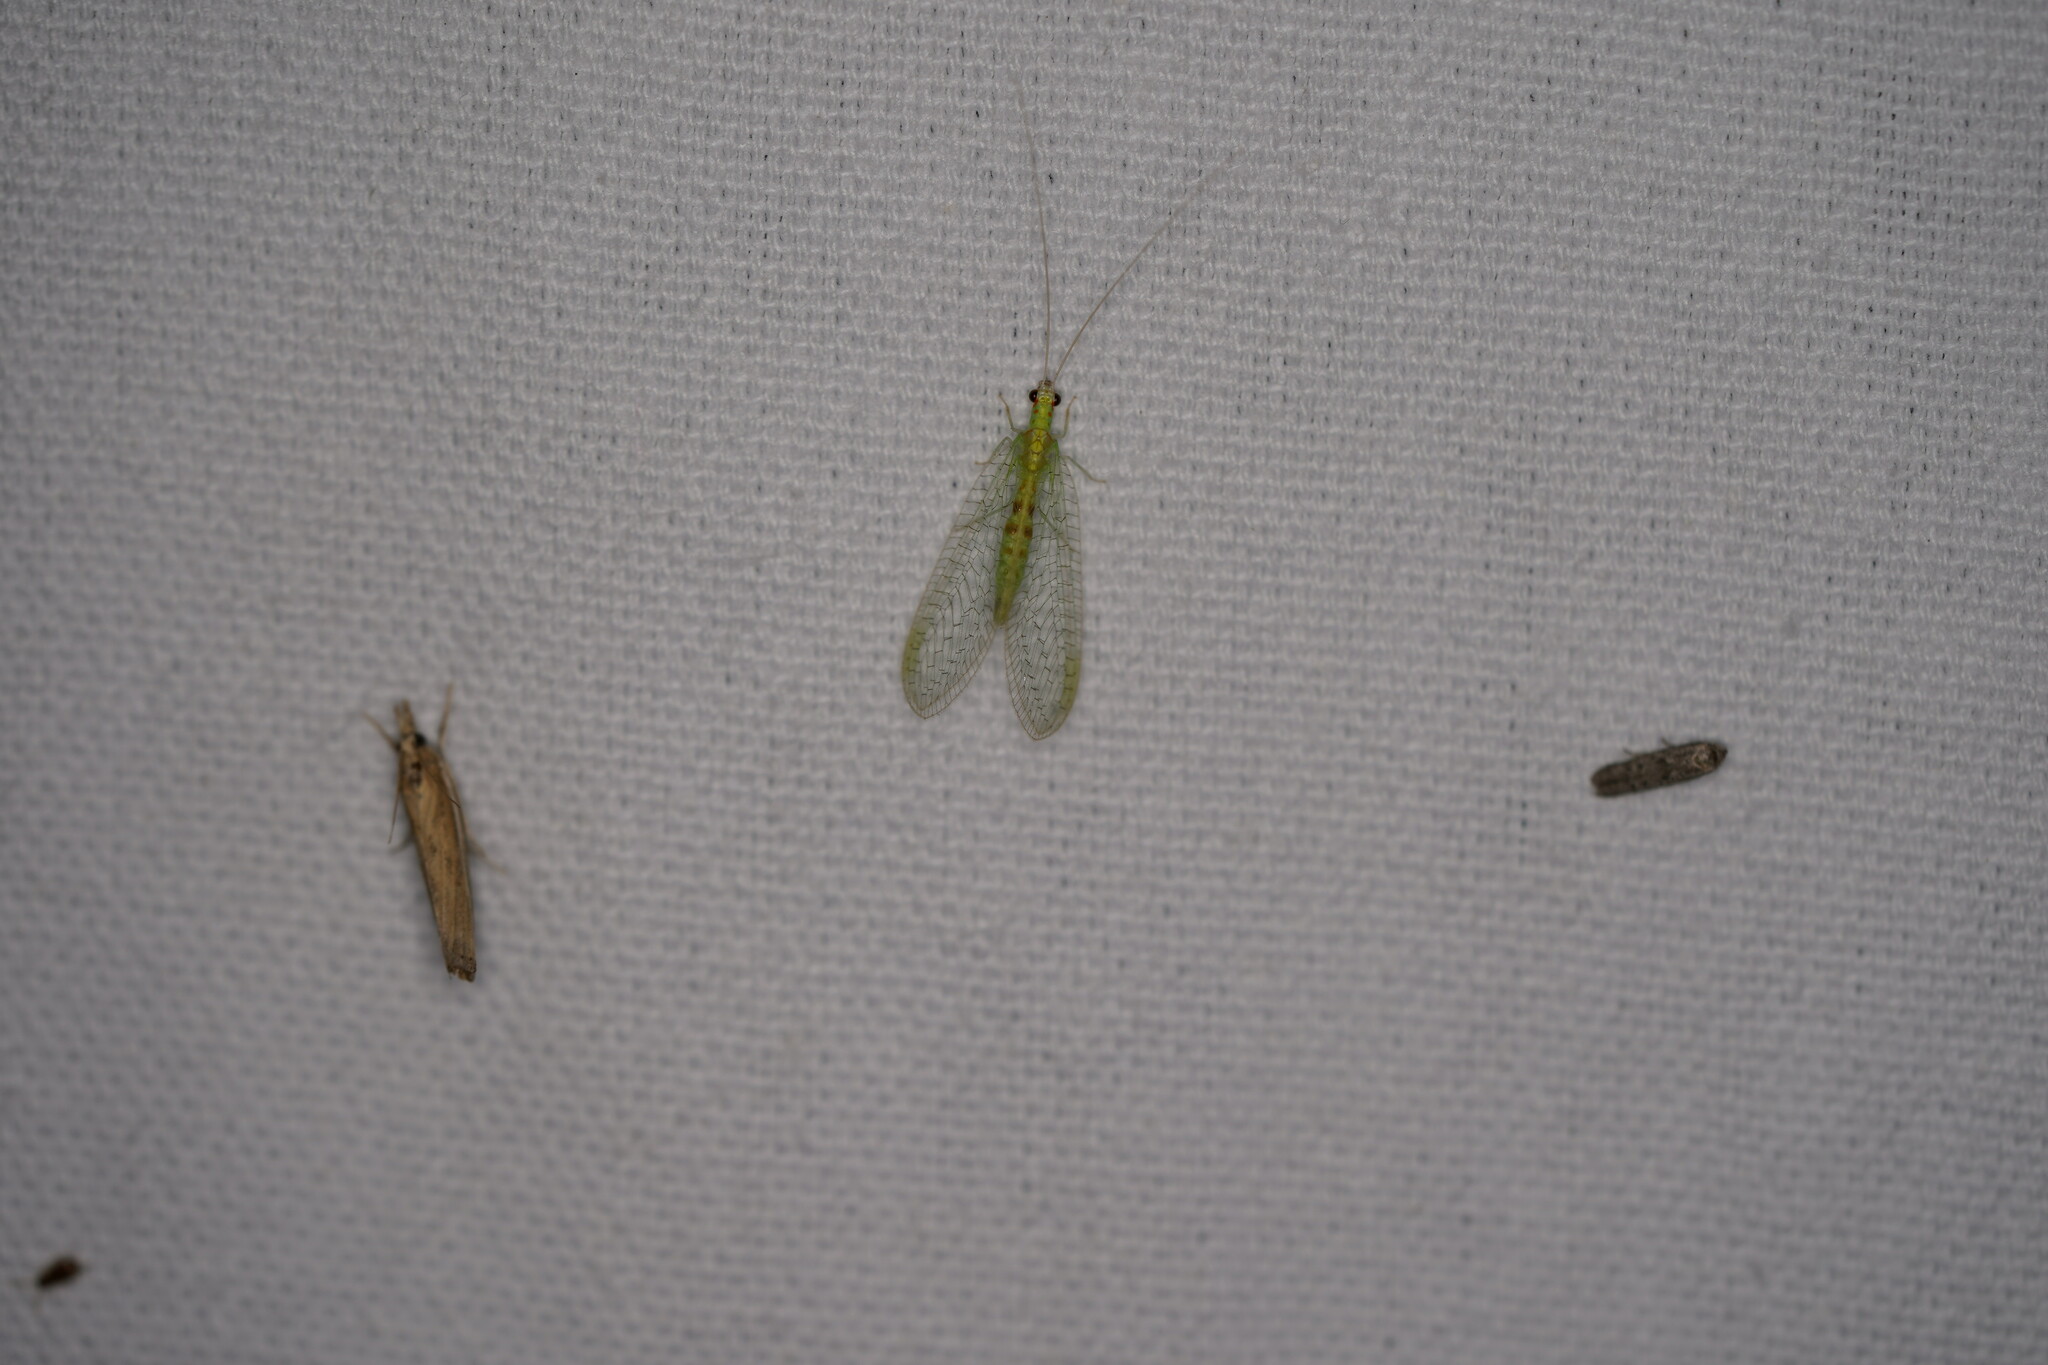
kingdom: Animalia
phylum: Arthropoda
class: Insecta
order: Neuroptera
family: Chrysopidae
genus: Chrysopa
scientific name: Chrysopa quadripunctata
